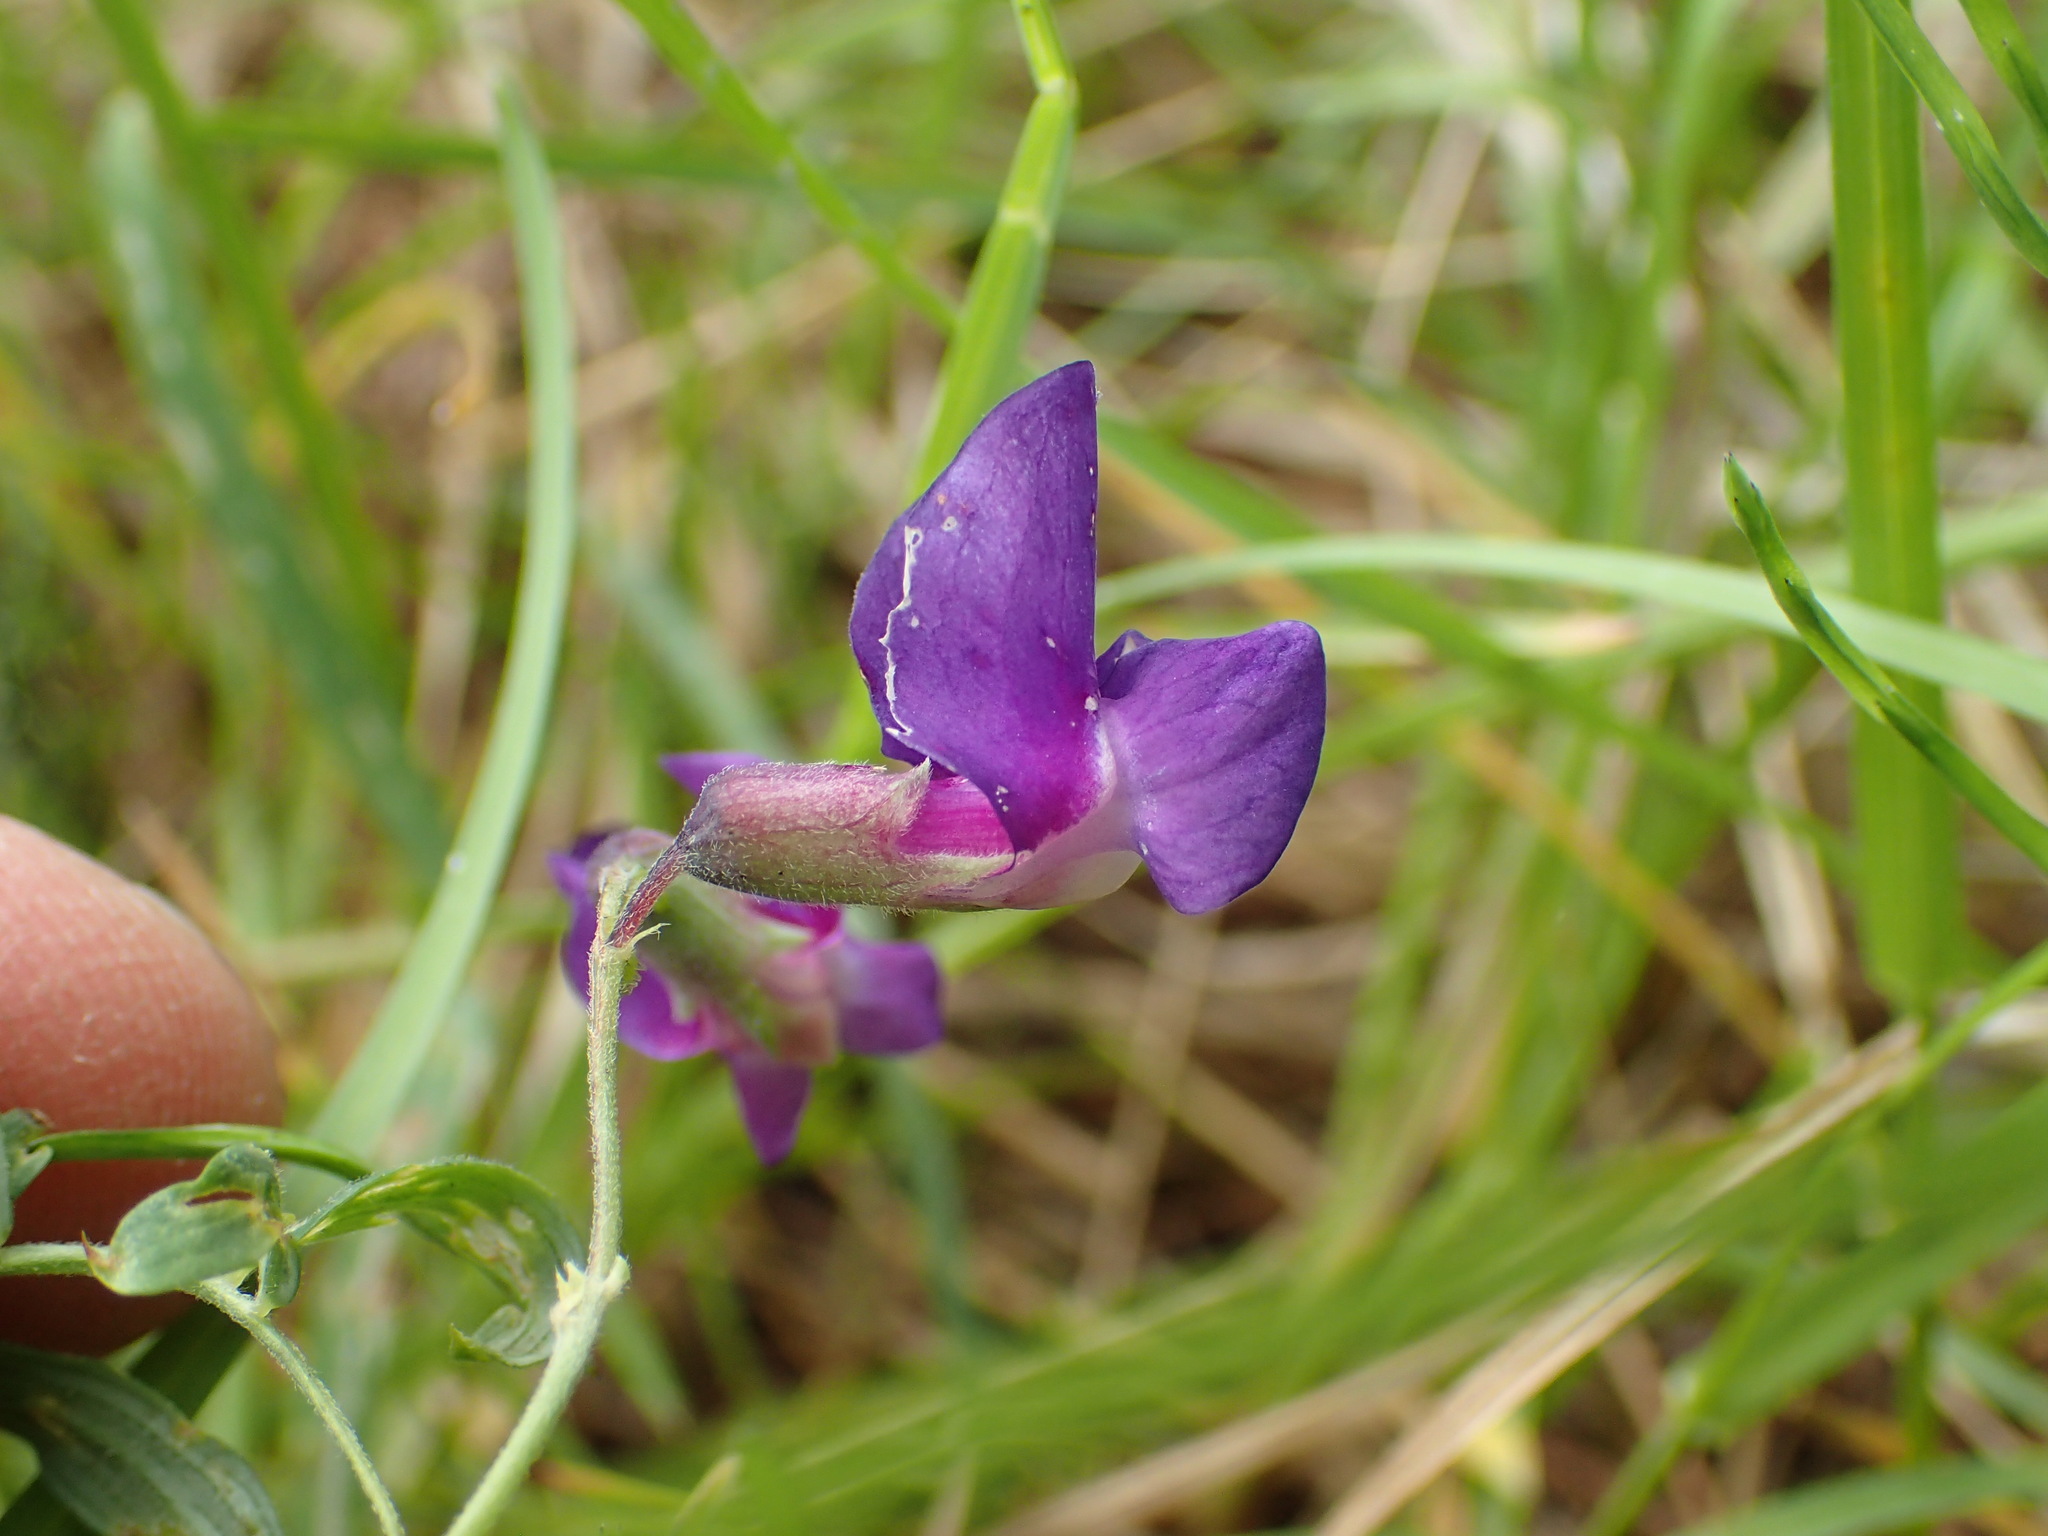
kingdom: Plantae
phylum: Tracheophyta
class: Magnoliopsida
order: Fabales
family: Fabaceae
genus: Lathyrus
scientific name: Lathyrus palustris
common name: Marsh pea
